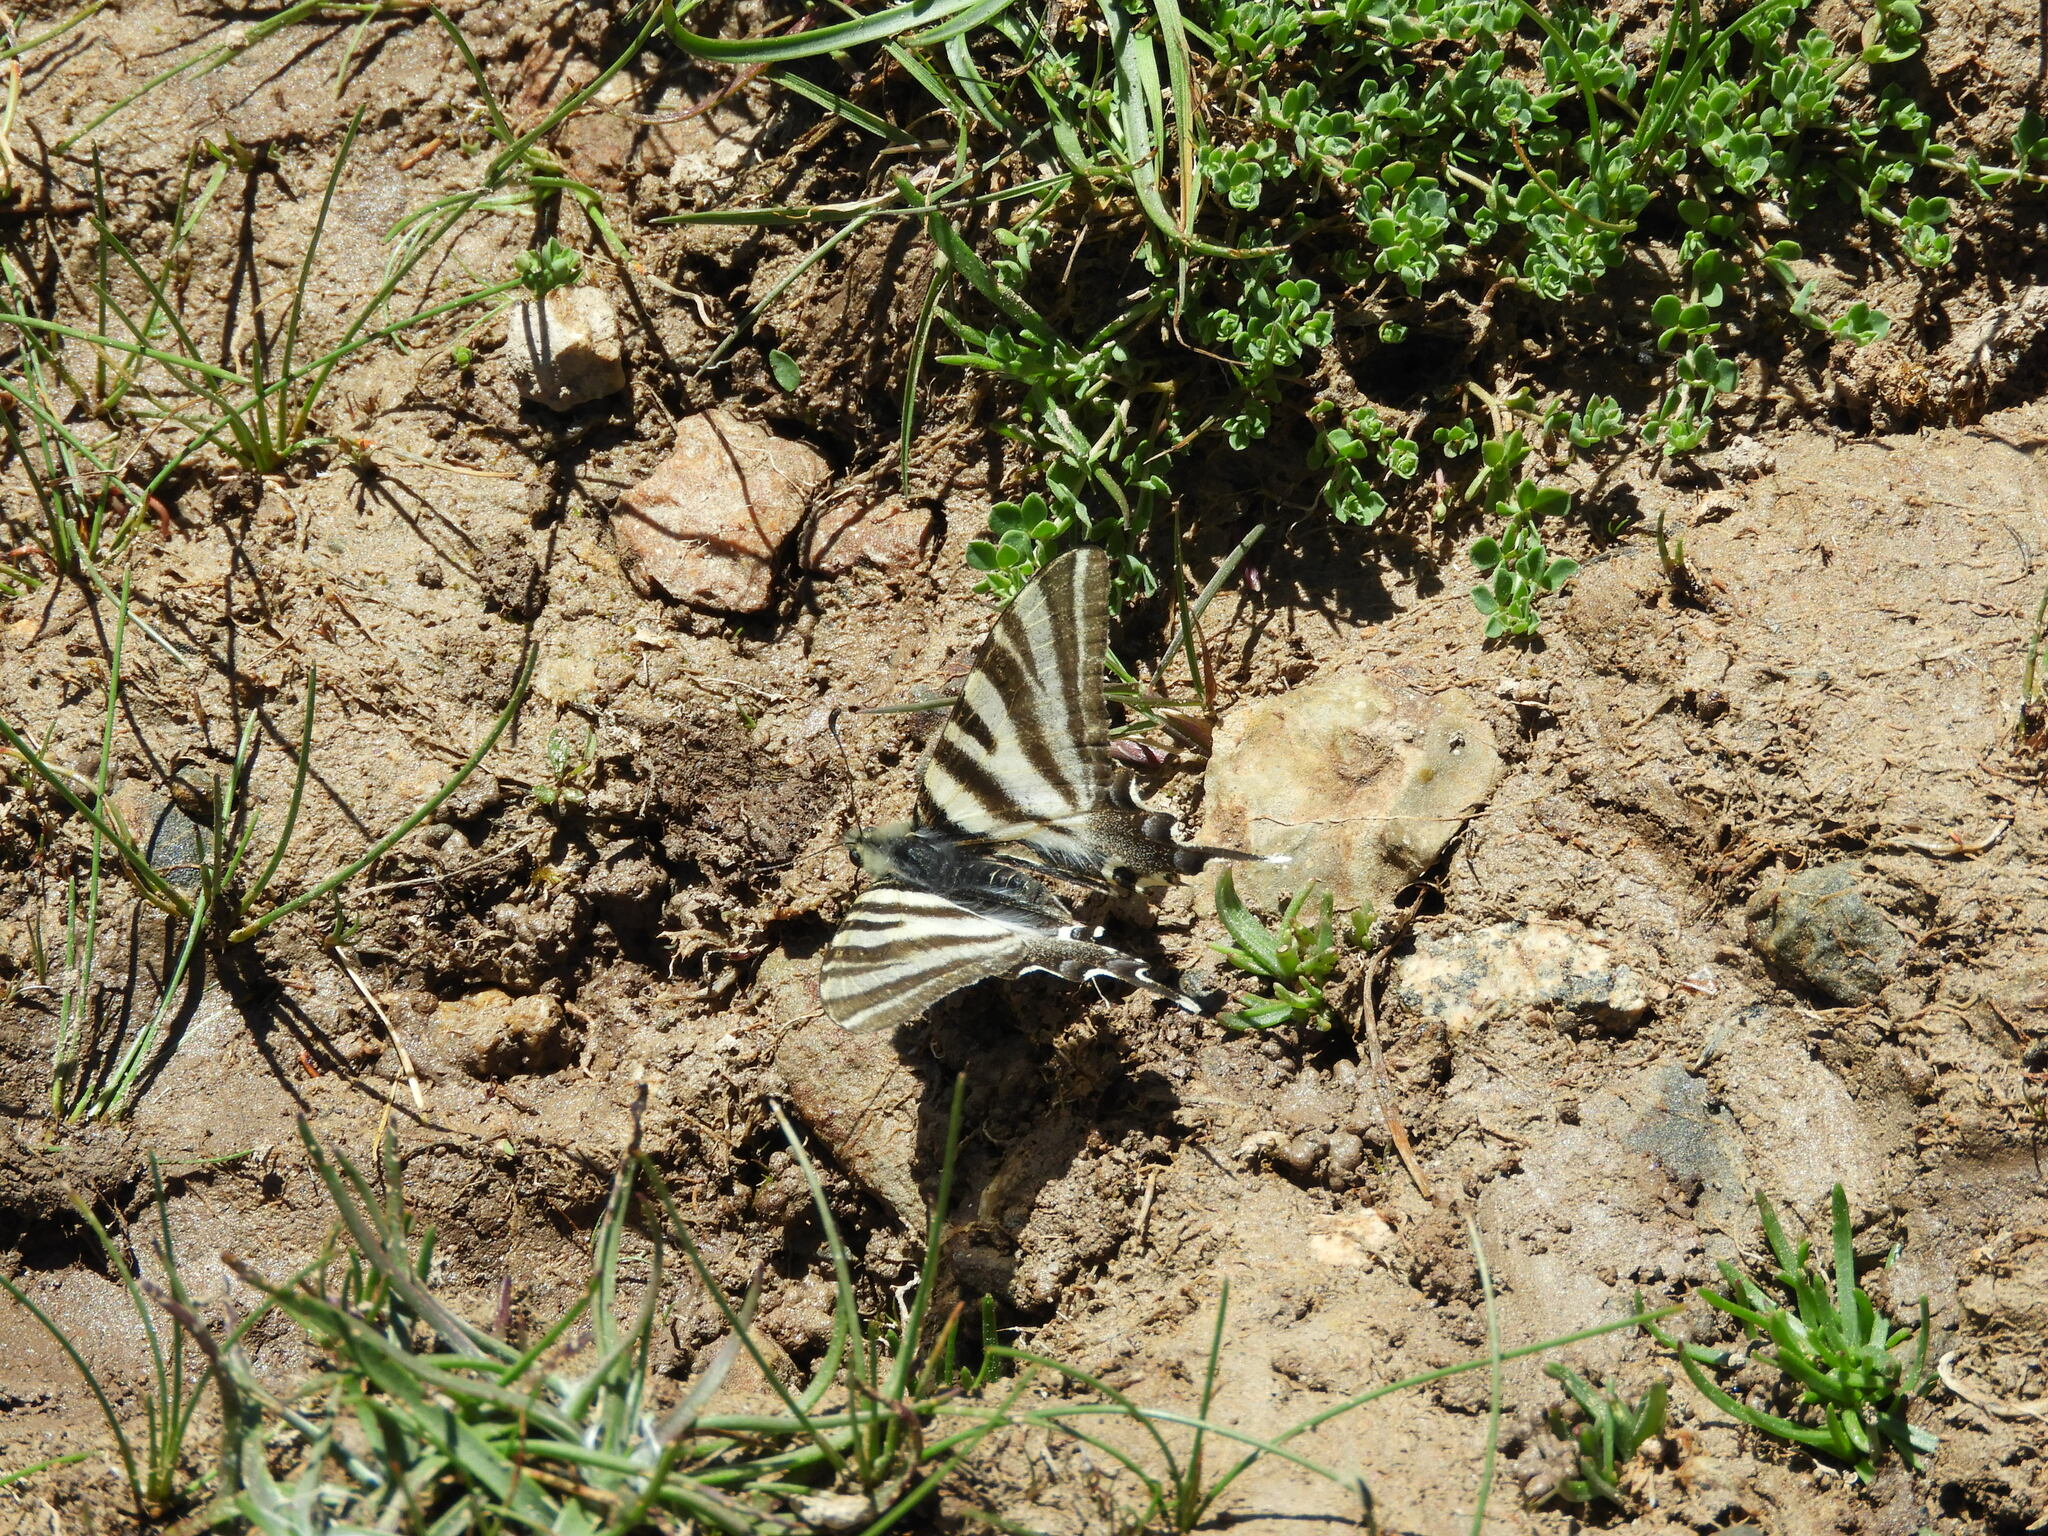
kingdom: Animalia
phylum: Arthropoda
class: Insecta
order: Lepidoptera
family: Papilionidae
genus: Iphiclides
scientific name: Iphiclides feisthamelii
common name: Iberian scarce swallowtail
